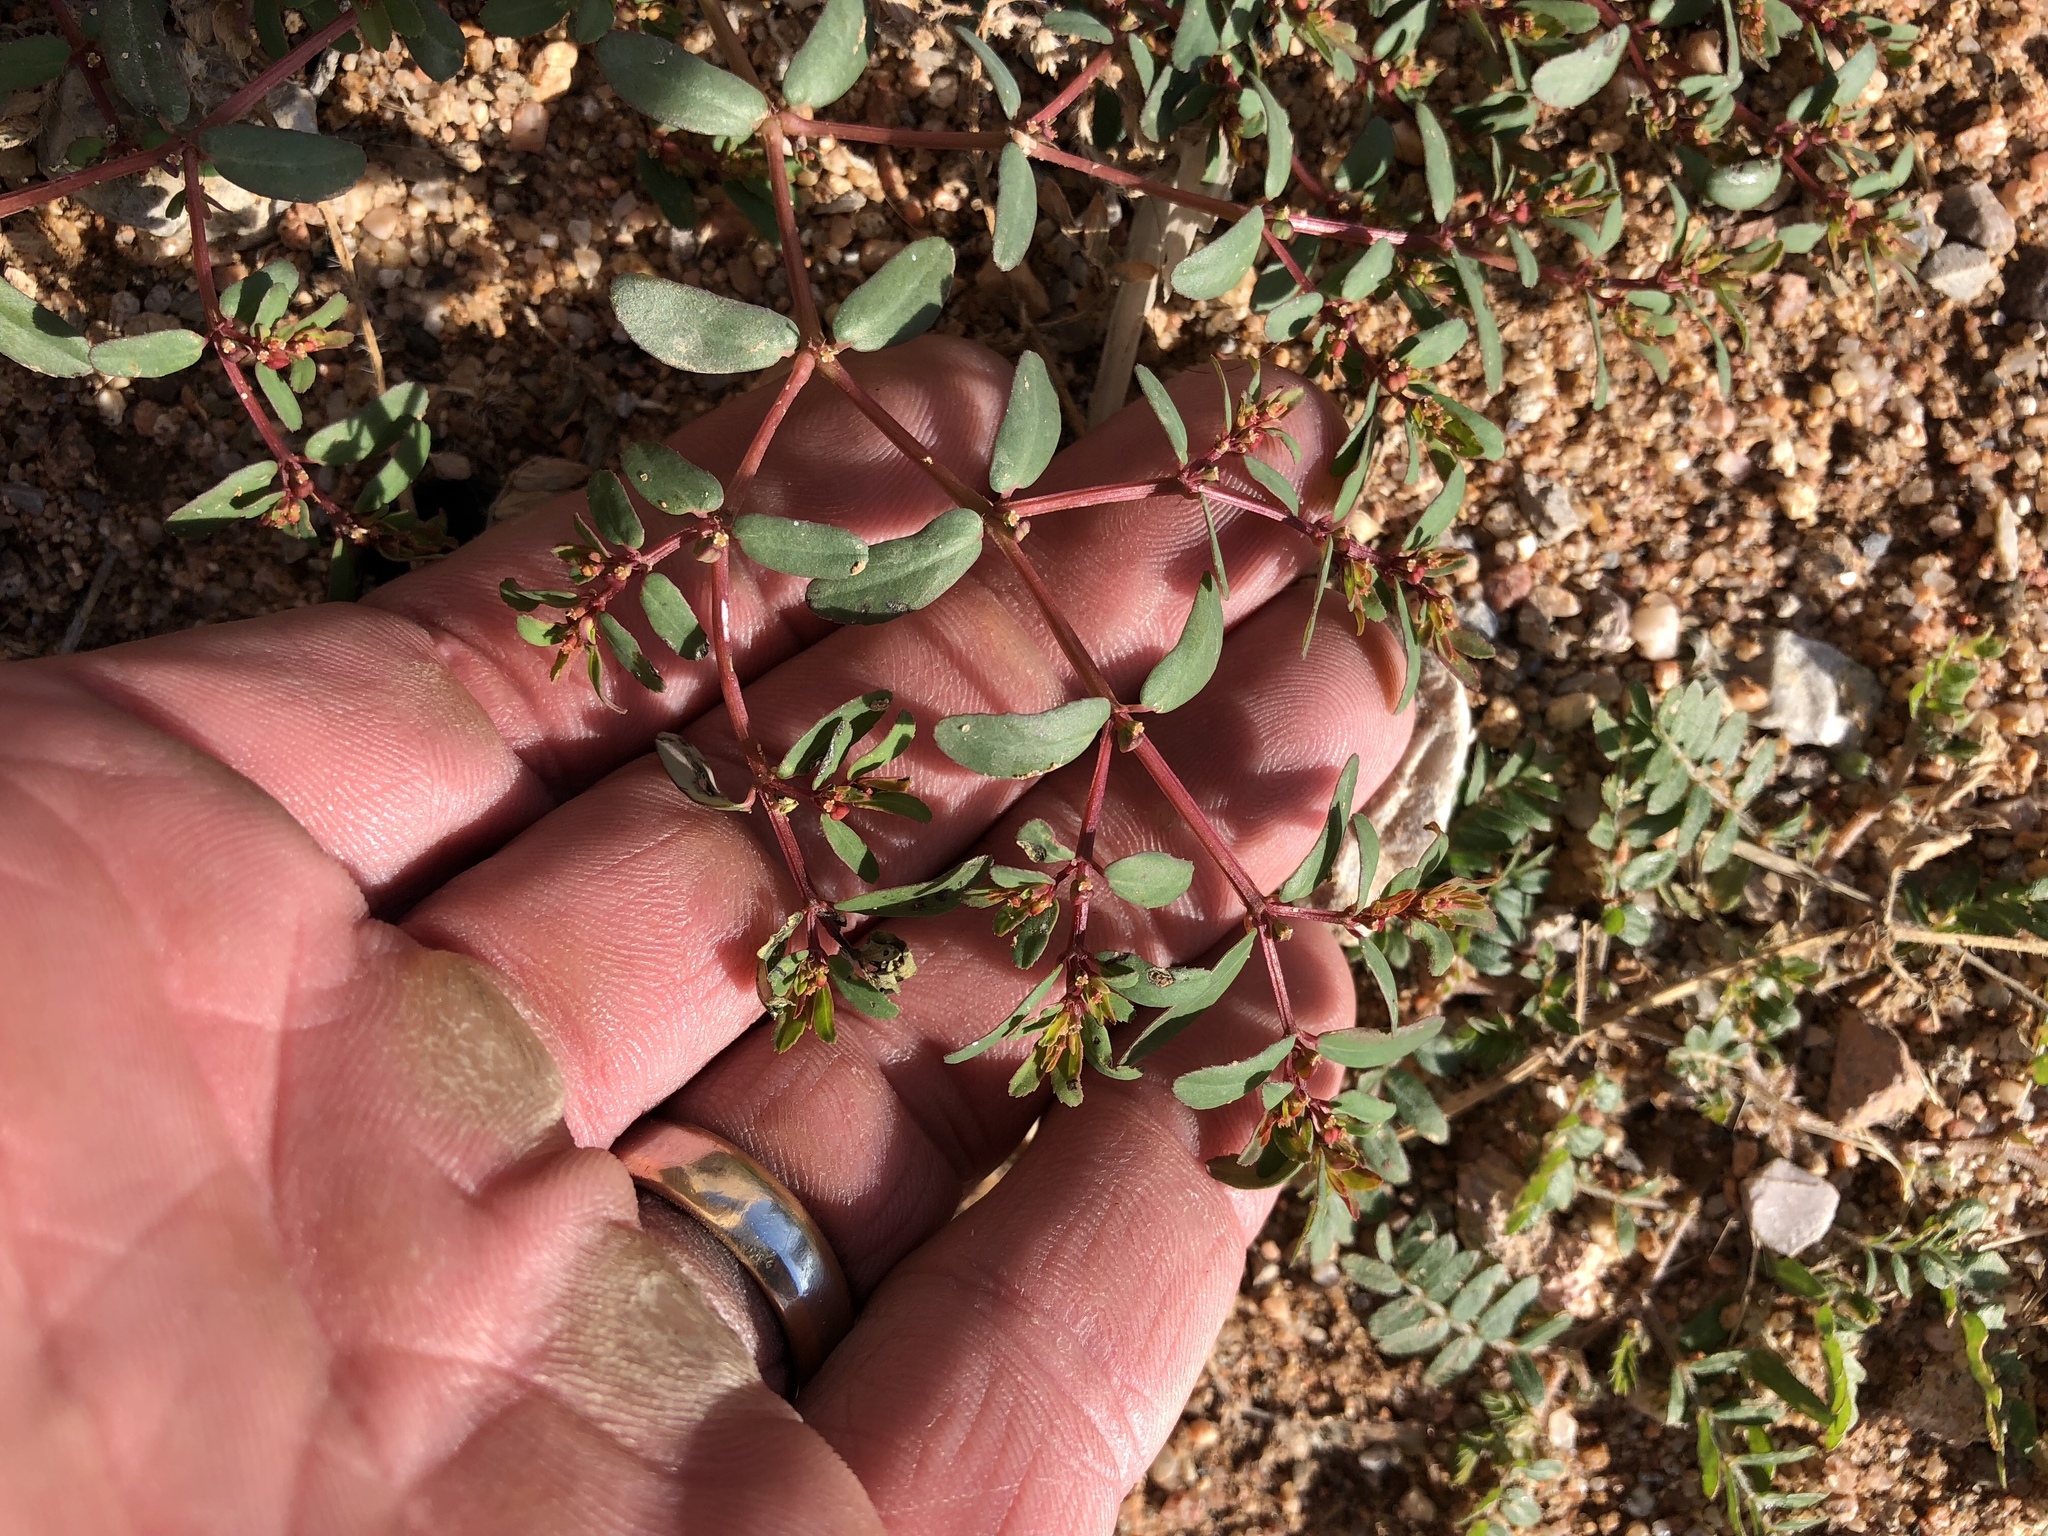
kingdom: Plantae
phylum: Tracheophyta
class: Magnoliopsida
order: Malpighiales
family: Euphorbiaceae
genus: Euphorbia
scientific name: Euphorbia serpillifolia
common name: Thyme-leaf spurge
